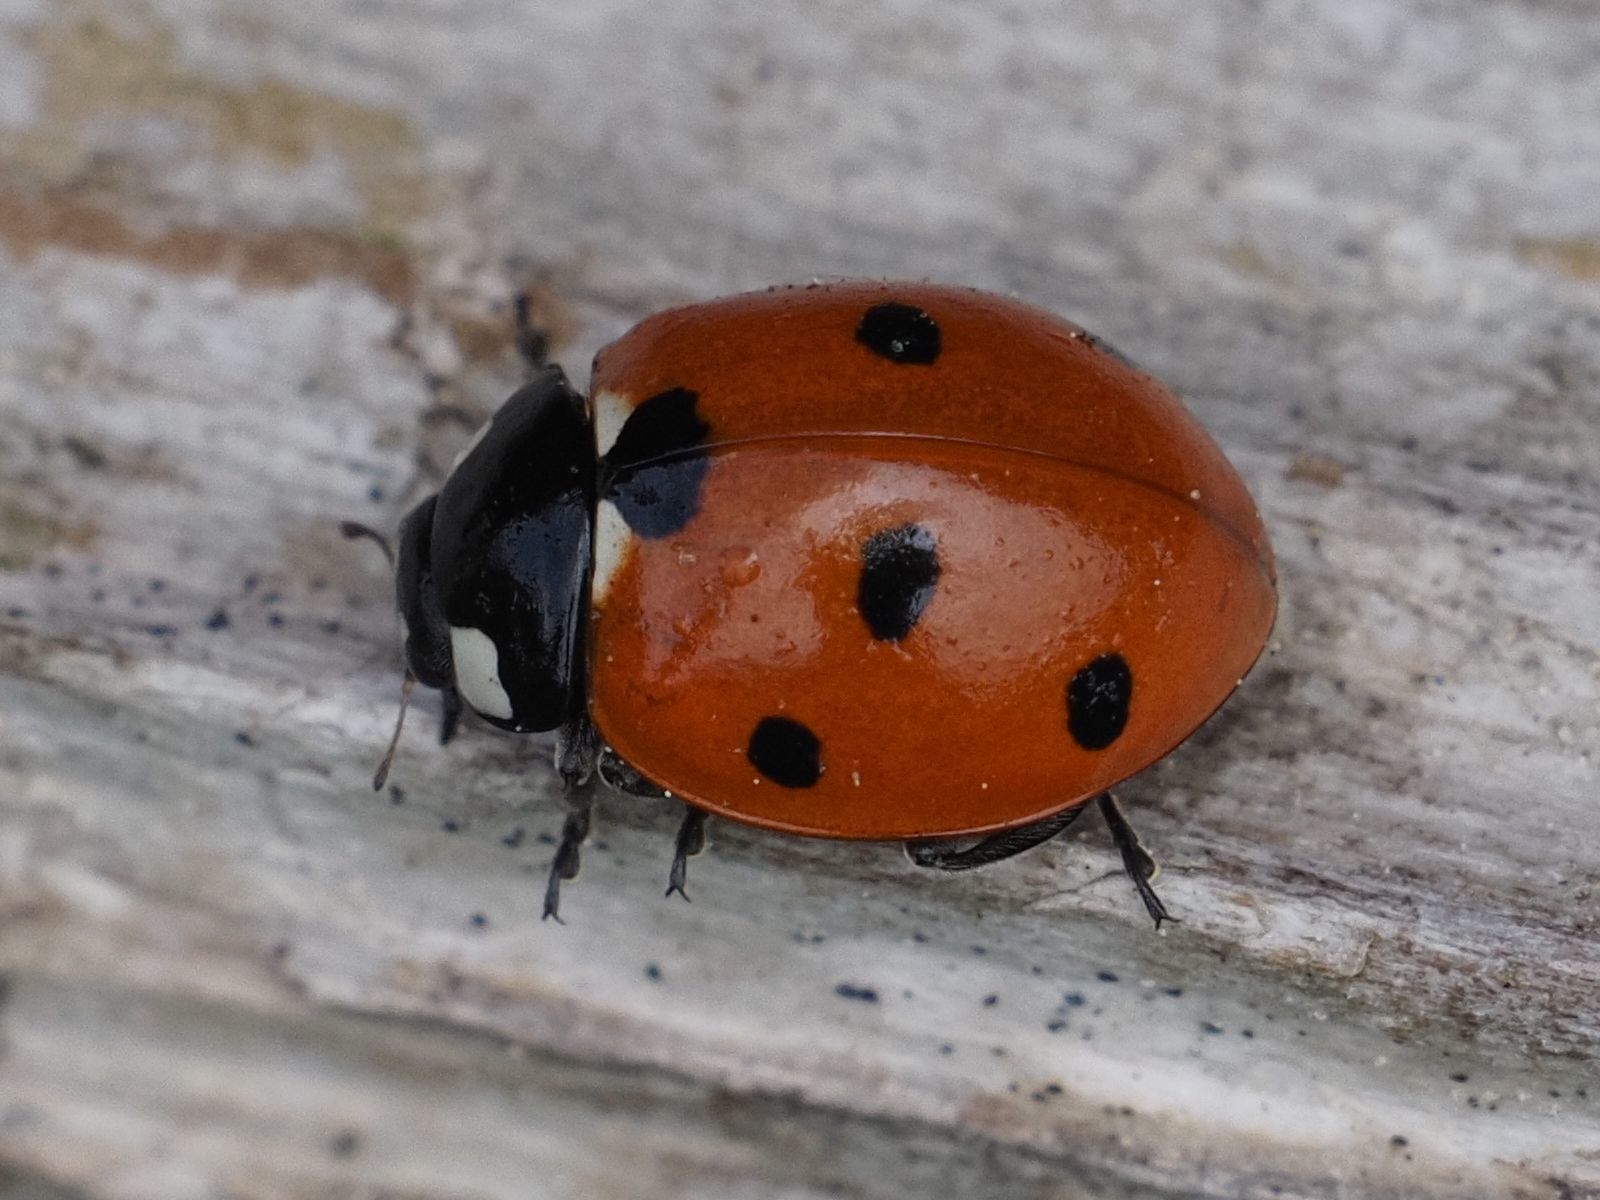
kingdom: Animalia
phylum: Arthropoda
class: Insecta
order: Coleoptera
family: Coccinellidae
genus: Coccinella
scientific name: Coccinella septempunctata
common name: Sevenspotted lady beetle
